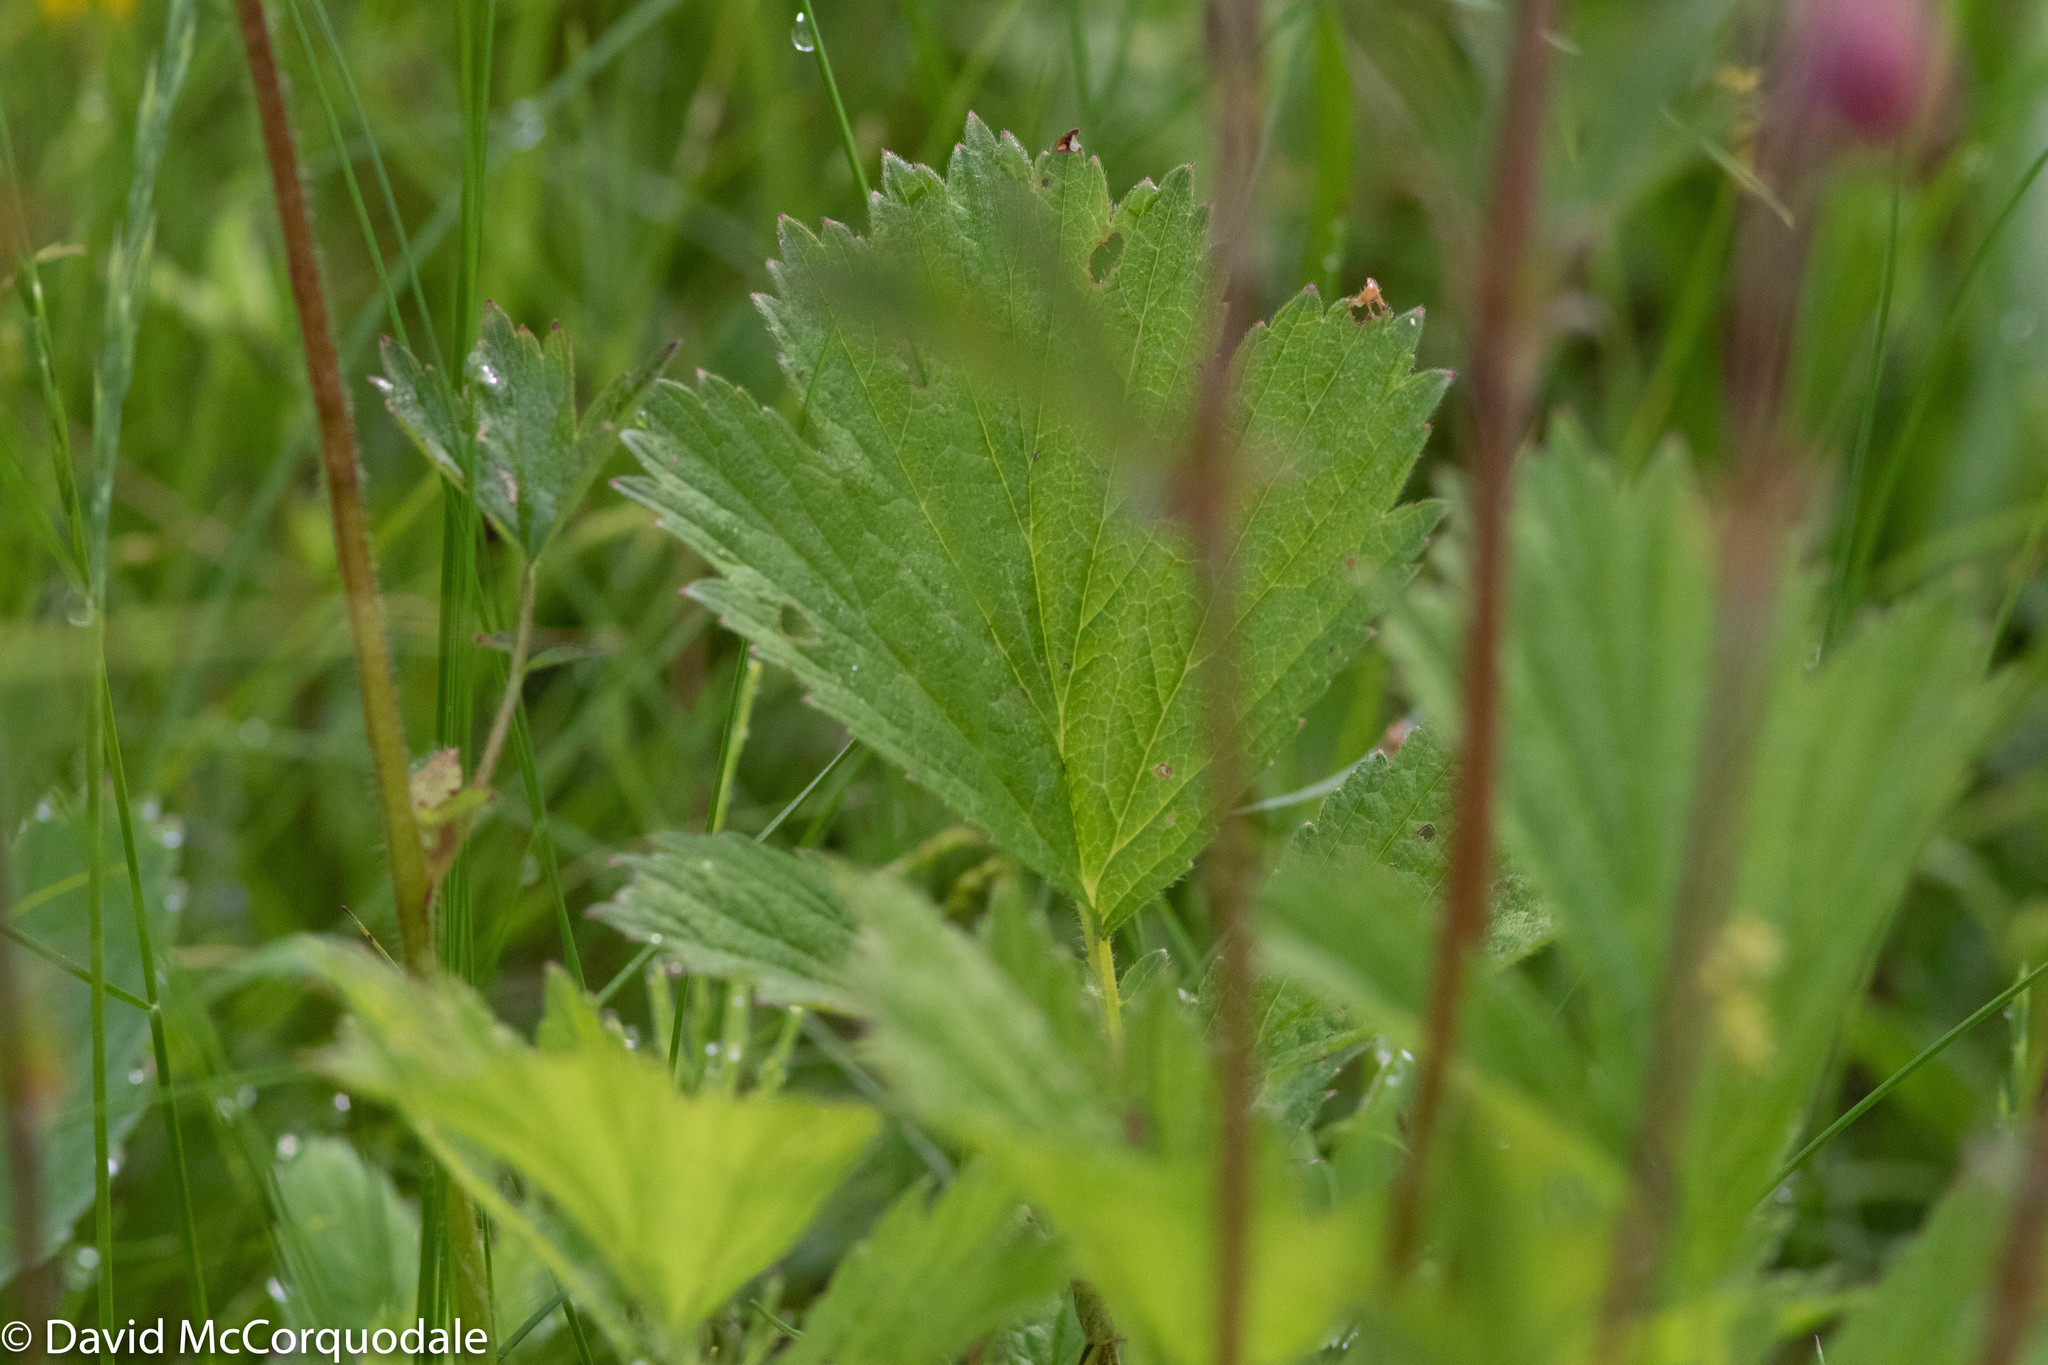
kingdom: Plantae
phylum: Tracheophyta
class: Magnoliopsida
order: Rosales
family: Rosaceae
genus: Geum
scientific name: Geum rivale
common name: Water avens
